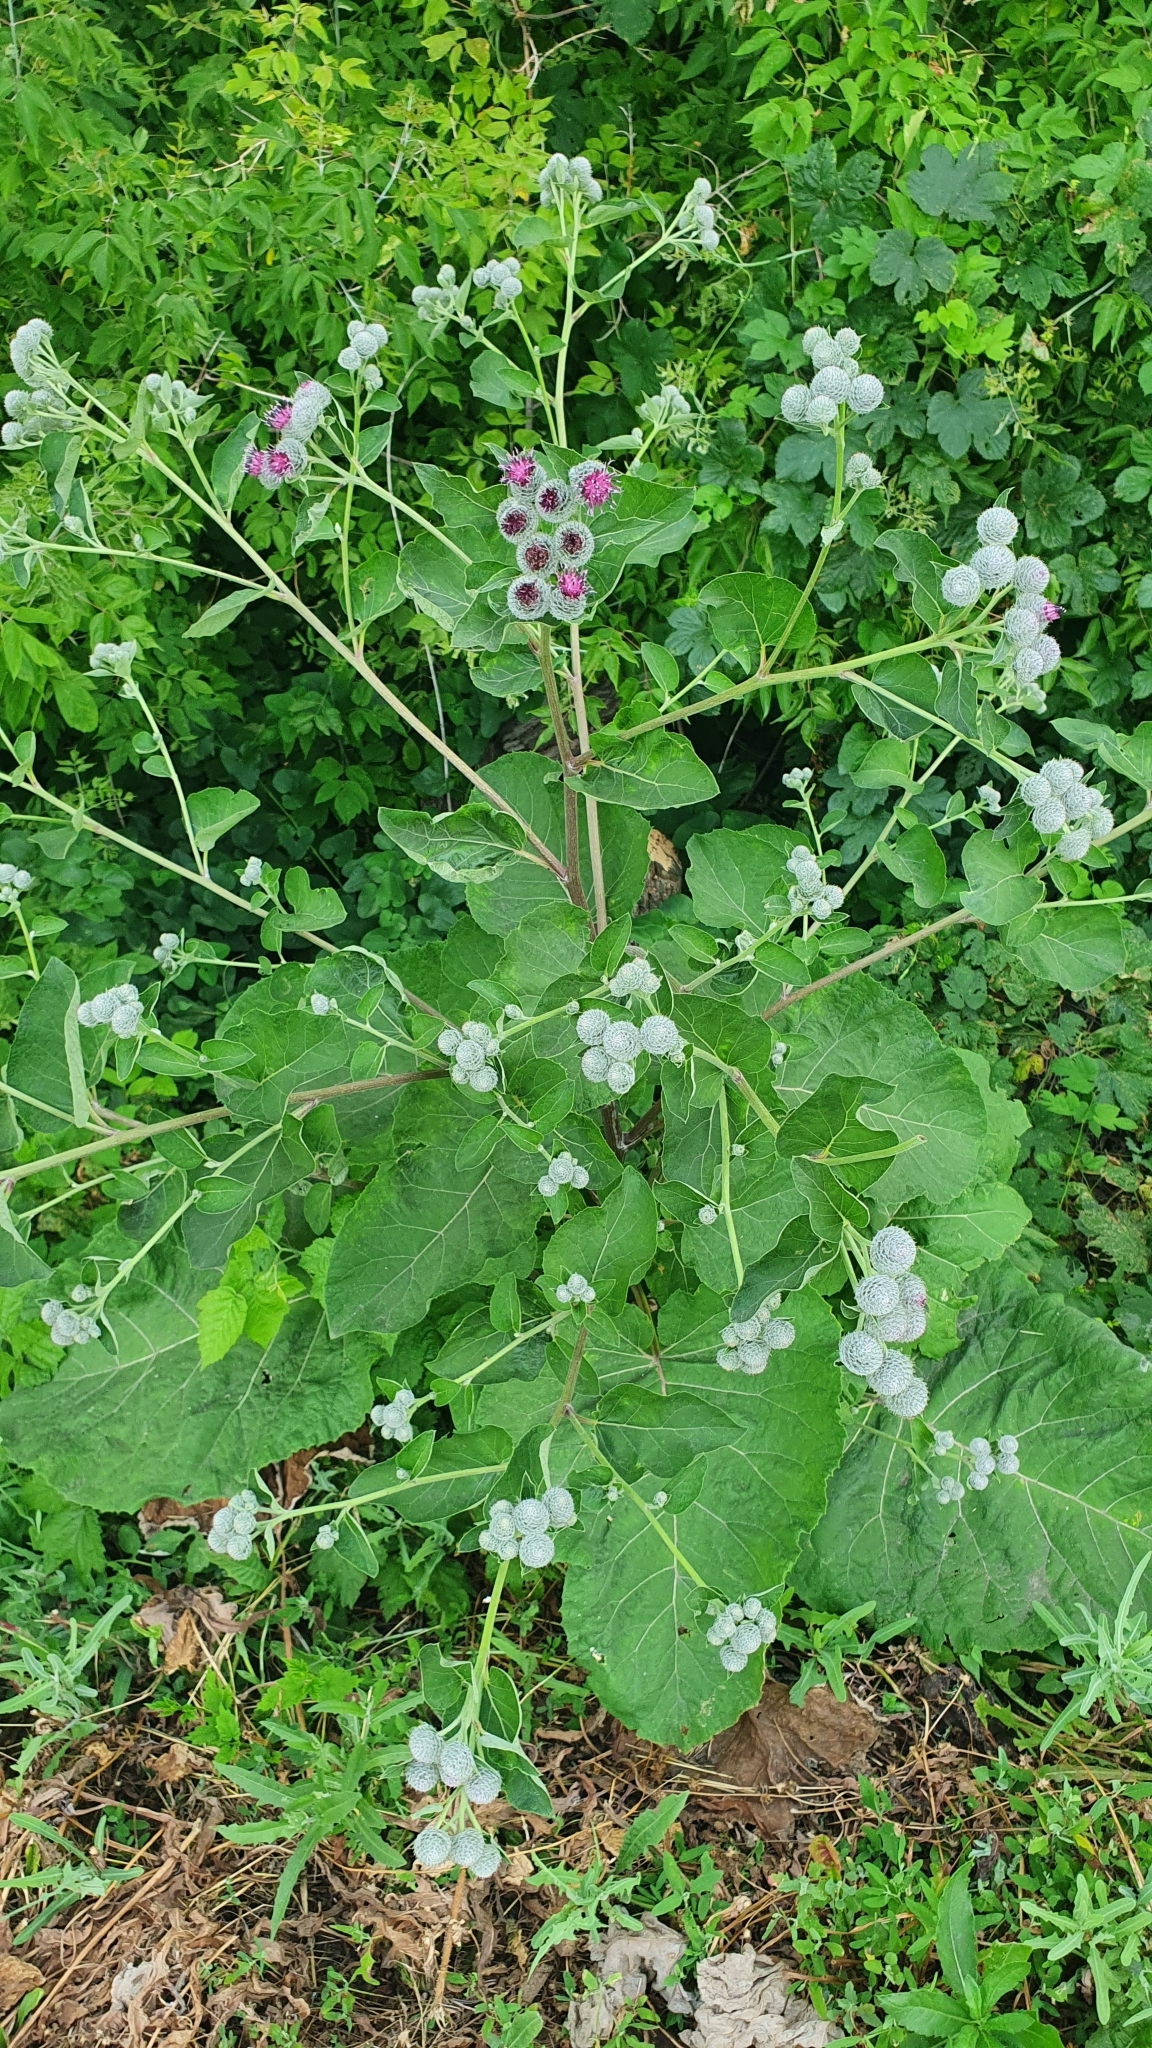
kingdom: Plantae
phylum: Tracheophyta
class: Magnoliopsida
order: Asterales
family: Asteraceae
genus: Arctium
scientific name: Arctium tomentosum
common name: Woolly burdock
